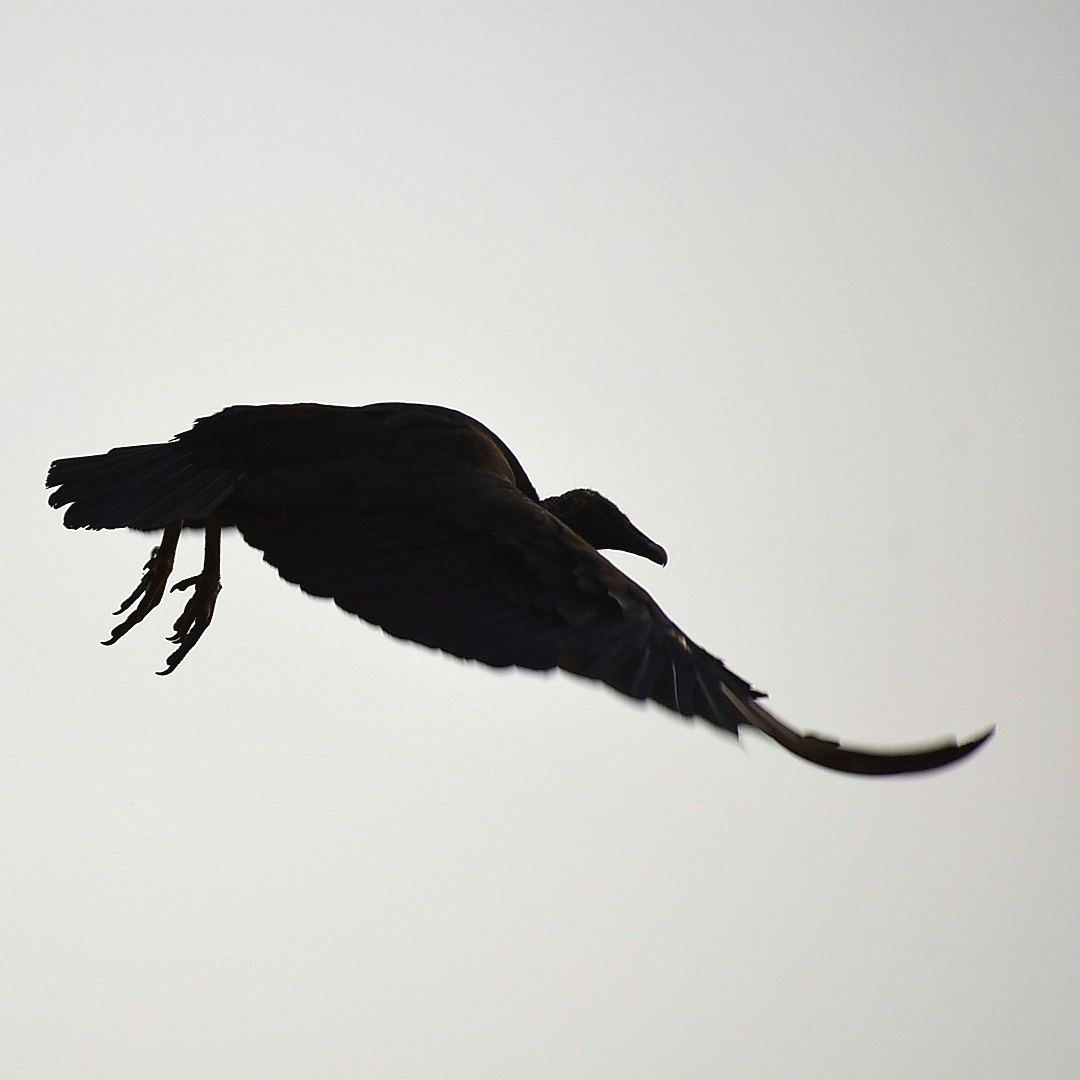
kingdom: Animalia
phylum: Chordata
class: Aves
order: Accipitriformes
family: Cathartidae
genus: Coragyps
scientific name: Coragyps atratus
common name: Black vulture
